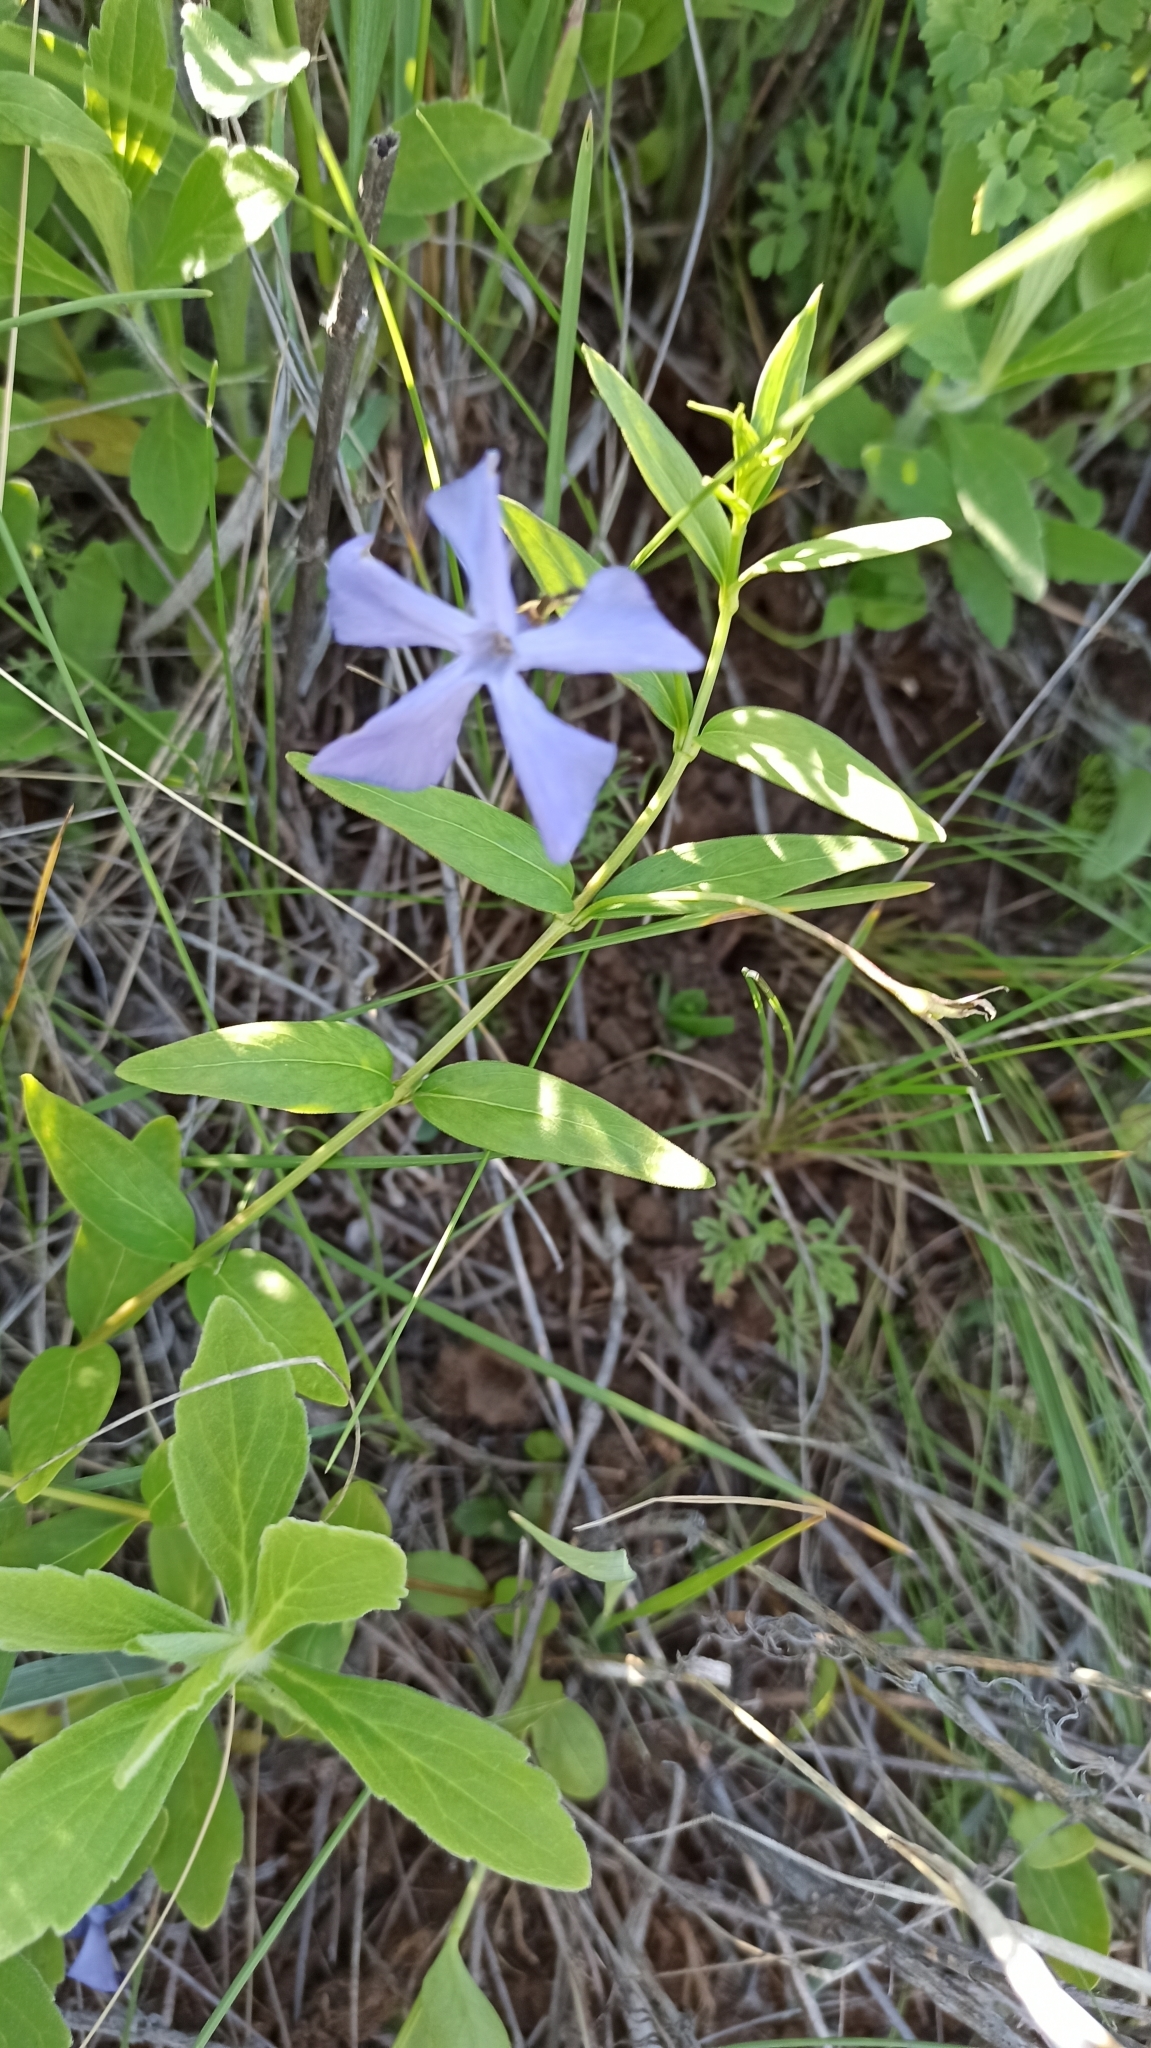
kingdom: Plantae
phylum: Tracheophyta
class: Magnoliopsida
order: Gentianales
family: Apocynaceae
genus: Vinca
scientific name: Vinca herbacea
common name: Herbaceous periwinkle
